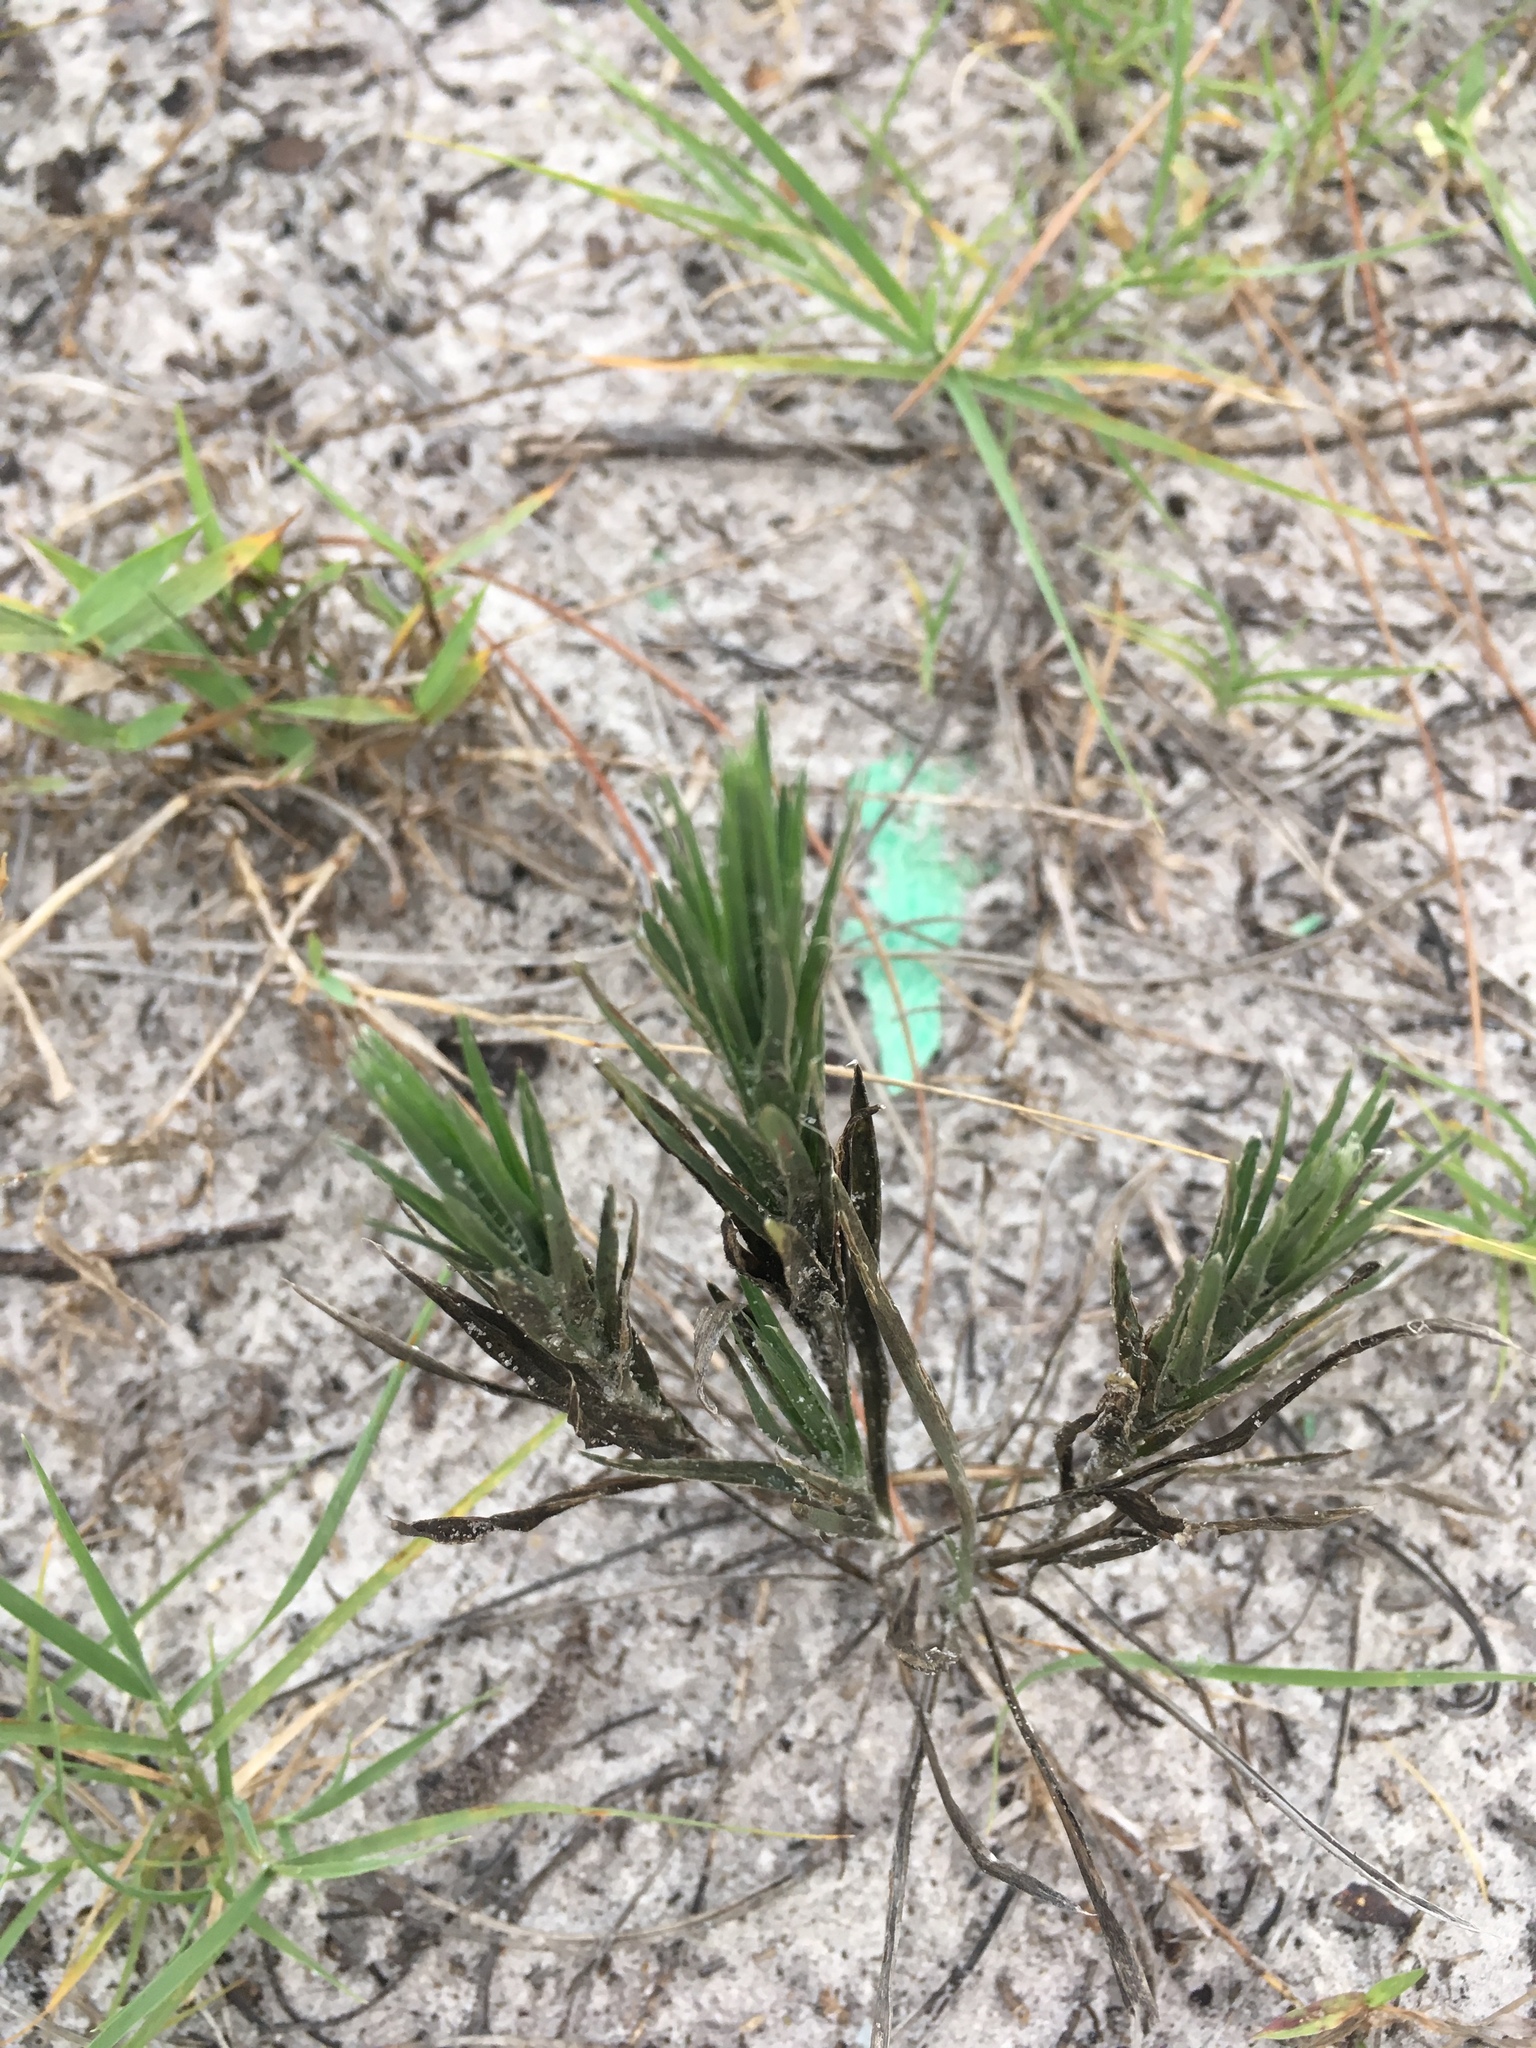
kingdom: Plantae
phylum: Tracheophyta
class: Magnoliopsida
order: Asterales
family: Asteraceae
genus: Pityopsis
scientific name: Pityopsis graminifolia
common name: Grass-leaf golden-aster
